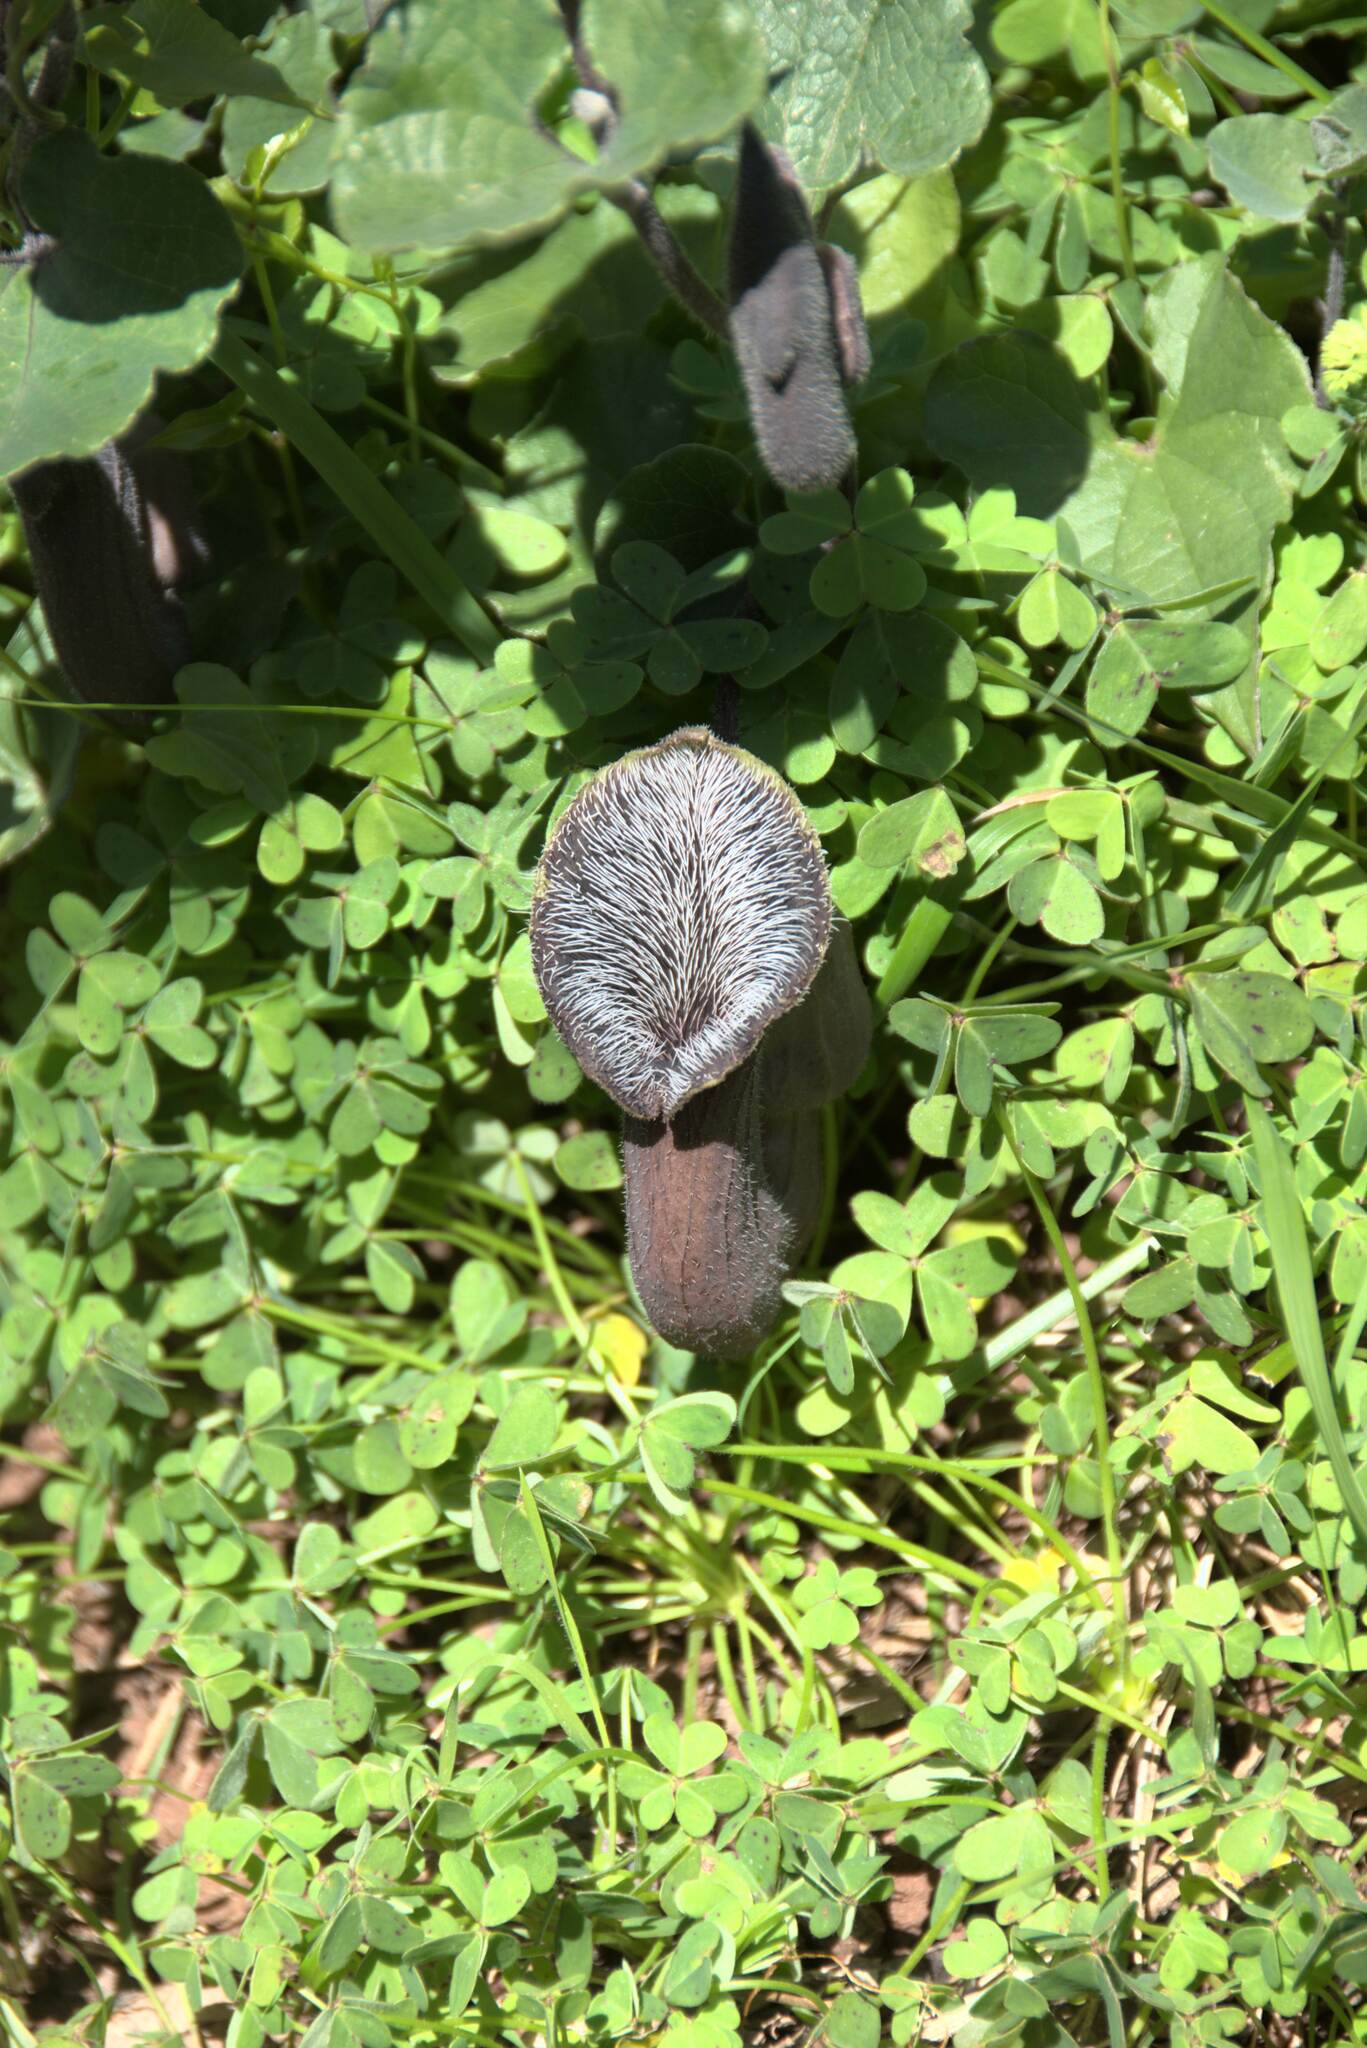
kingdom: Plantae
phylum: Tracheophyta
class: Magnoliopsida
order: Piperales
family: Aristolochiaceae
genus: Aristolochia
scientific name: Aristolochia cretica
